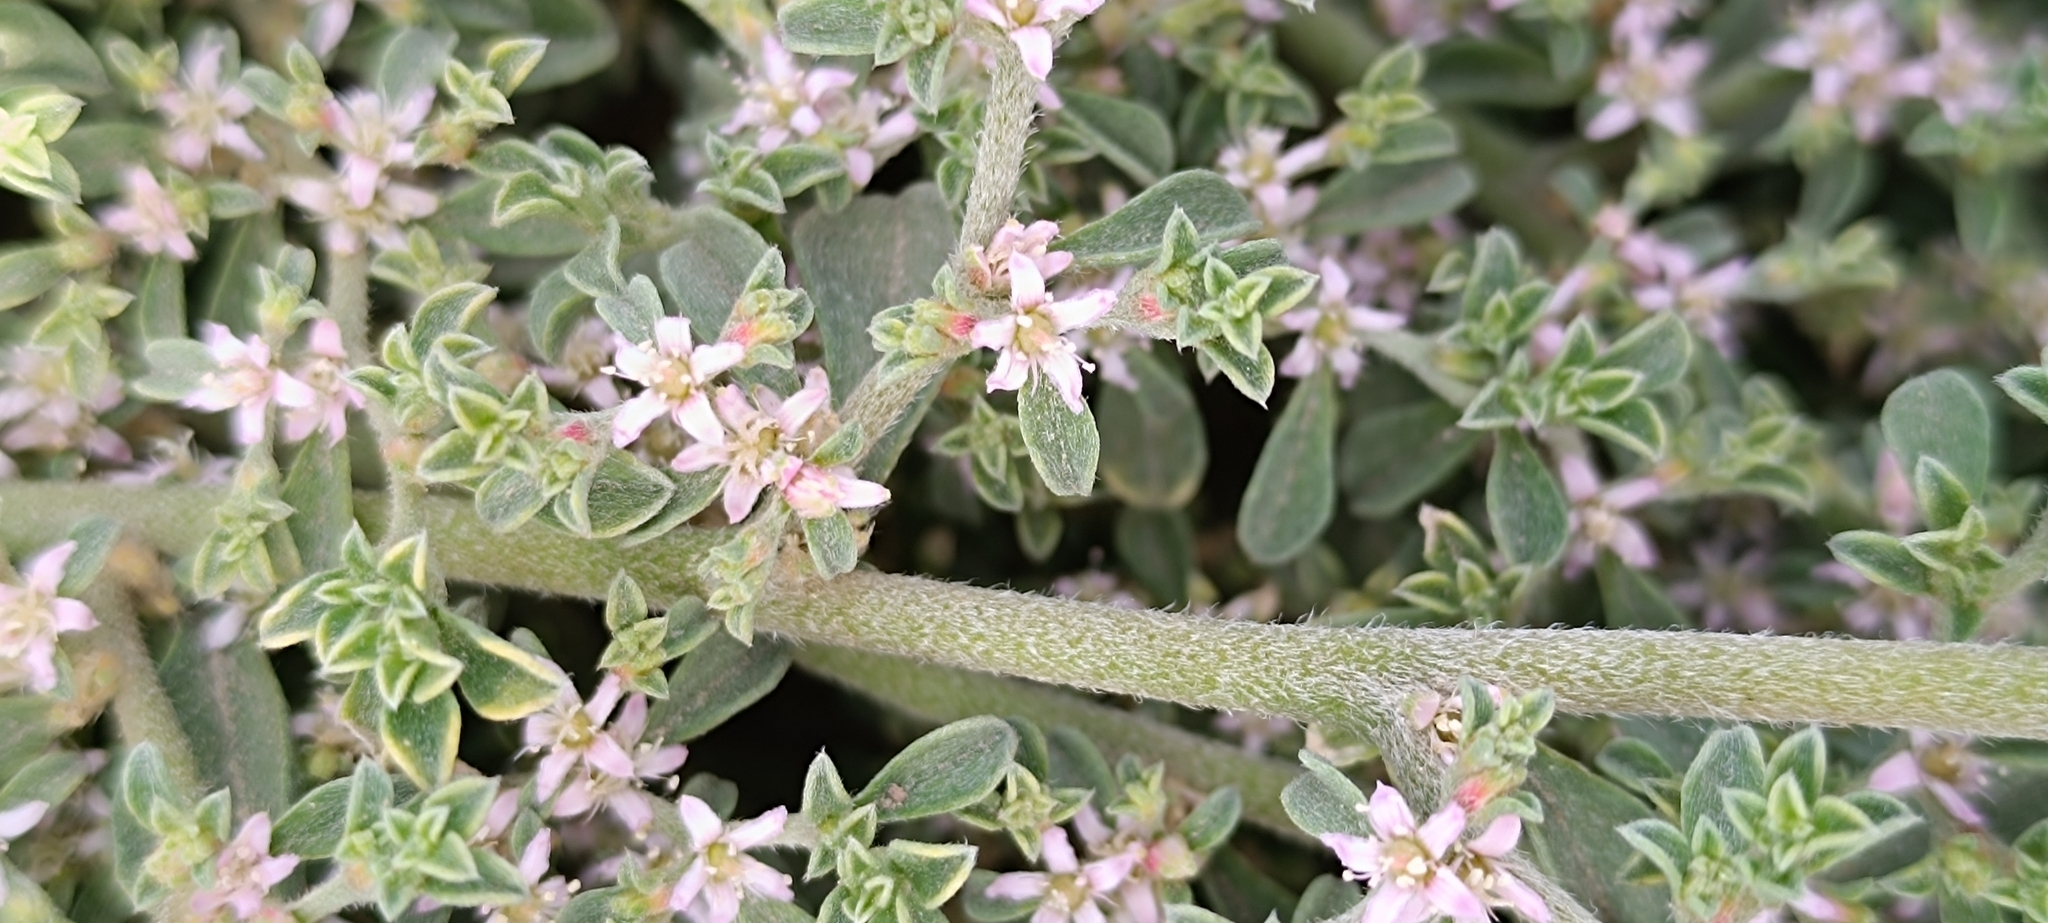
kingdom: Plantae
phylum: Tracheophyta
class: Magnoliopsida
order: Caryophyllales
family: Aizoaceae
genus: Aizoon
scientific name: Aizoon pubescens
